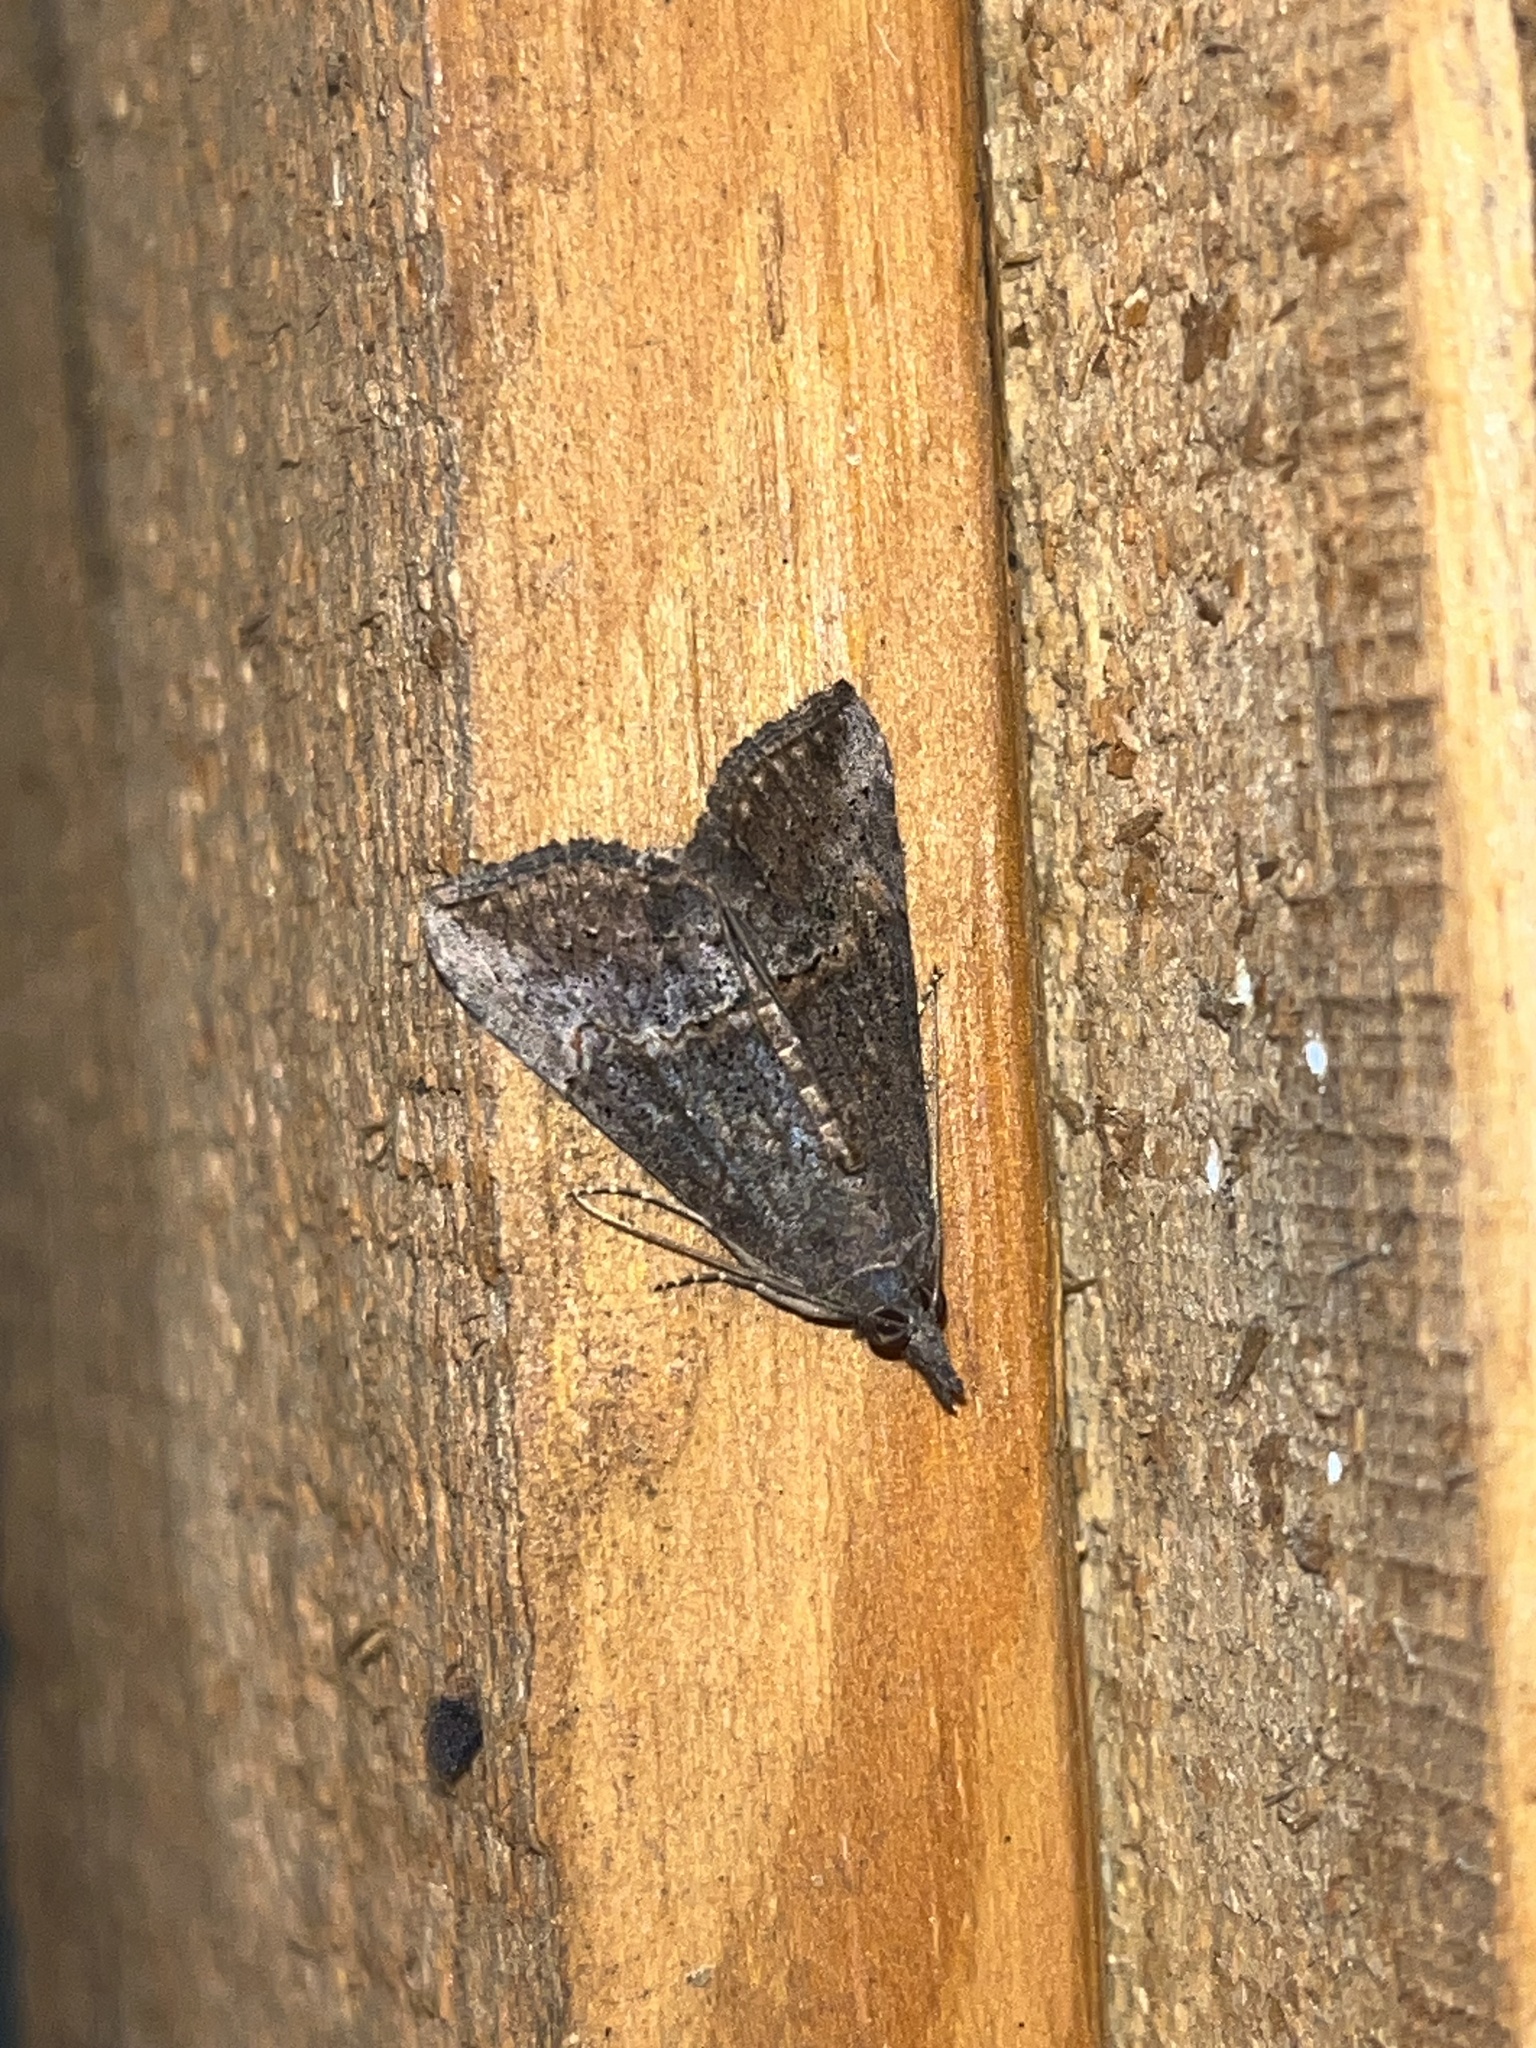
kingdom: Animalia
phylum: Arthropoda
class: Insecta
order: Lepidoptera
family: Erebidae
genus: Hypena
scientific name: Hypena scabra
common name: Green cloverworm
